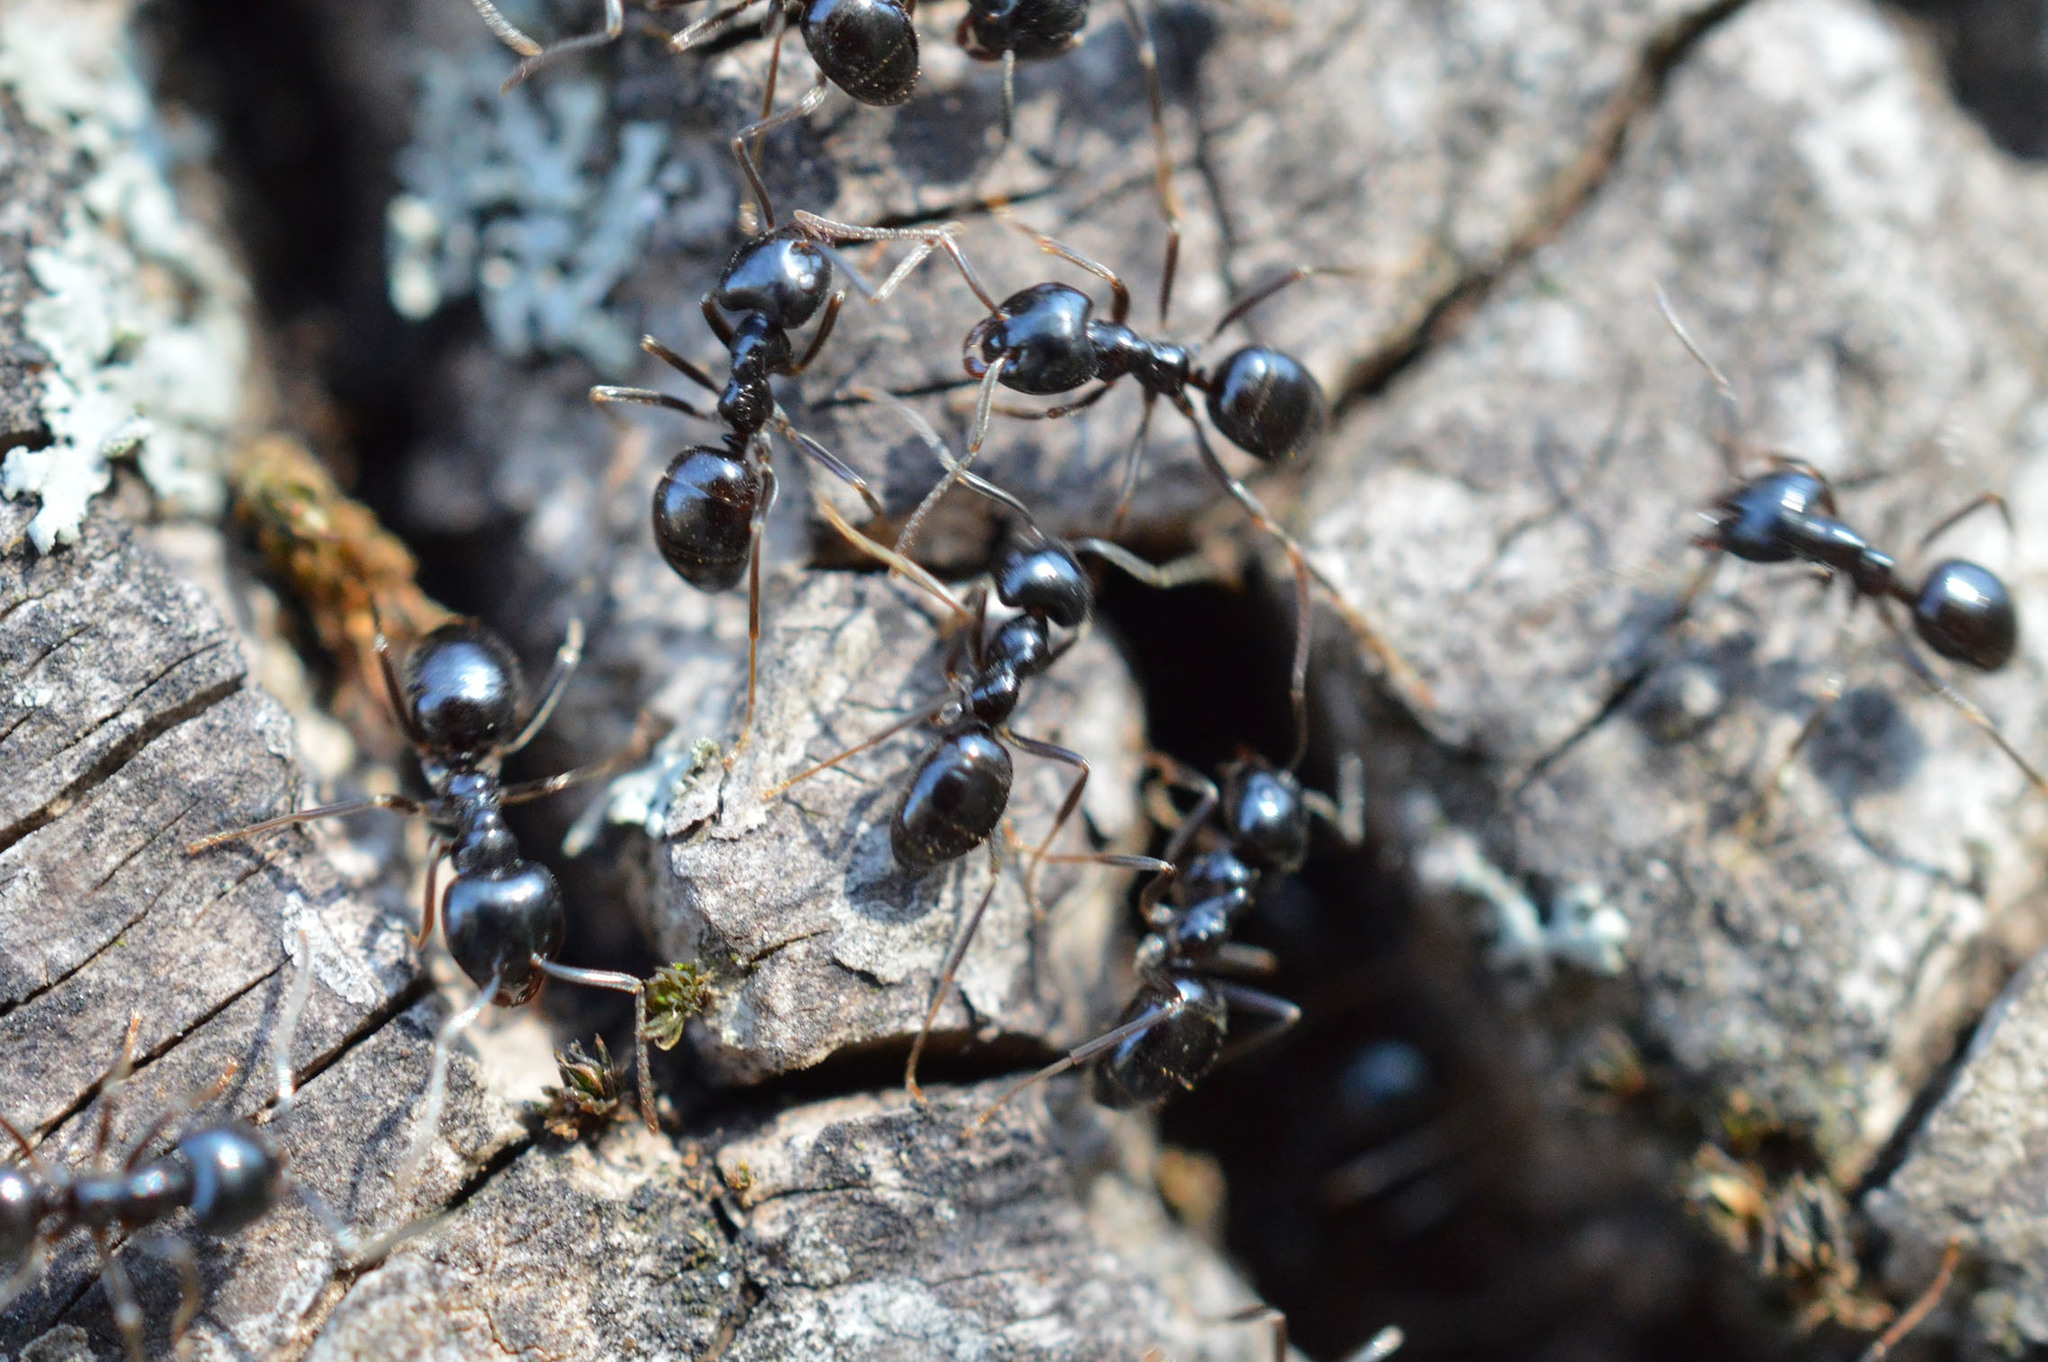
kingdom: Animalia
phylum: Arthropoda
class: Insecta
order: Hymenoptera
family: Formicidae
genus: Lasius
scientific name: Lasius fuliginosus
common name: Jet ant
